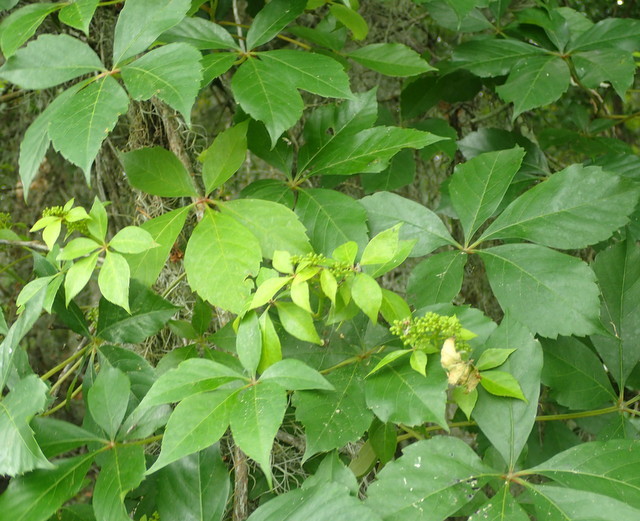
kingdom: Plantae
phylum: Tracheophyta
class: Magnoliopsida
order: Vitales
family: Vitaceae
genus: Parthenocissus
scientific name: Parthenocissus quinquefolia
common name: Virginia-creeper
